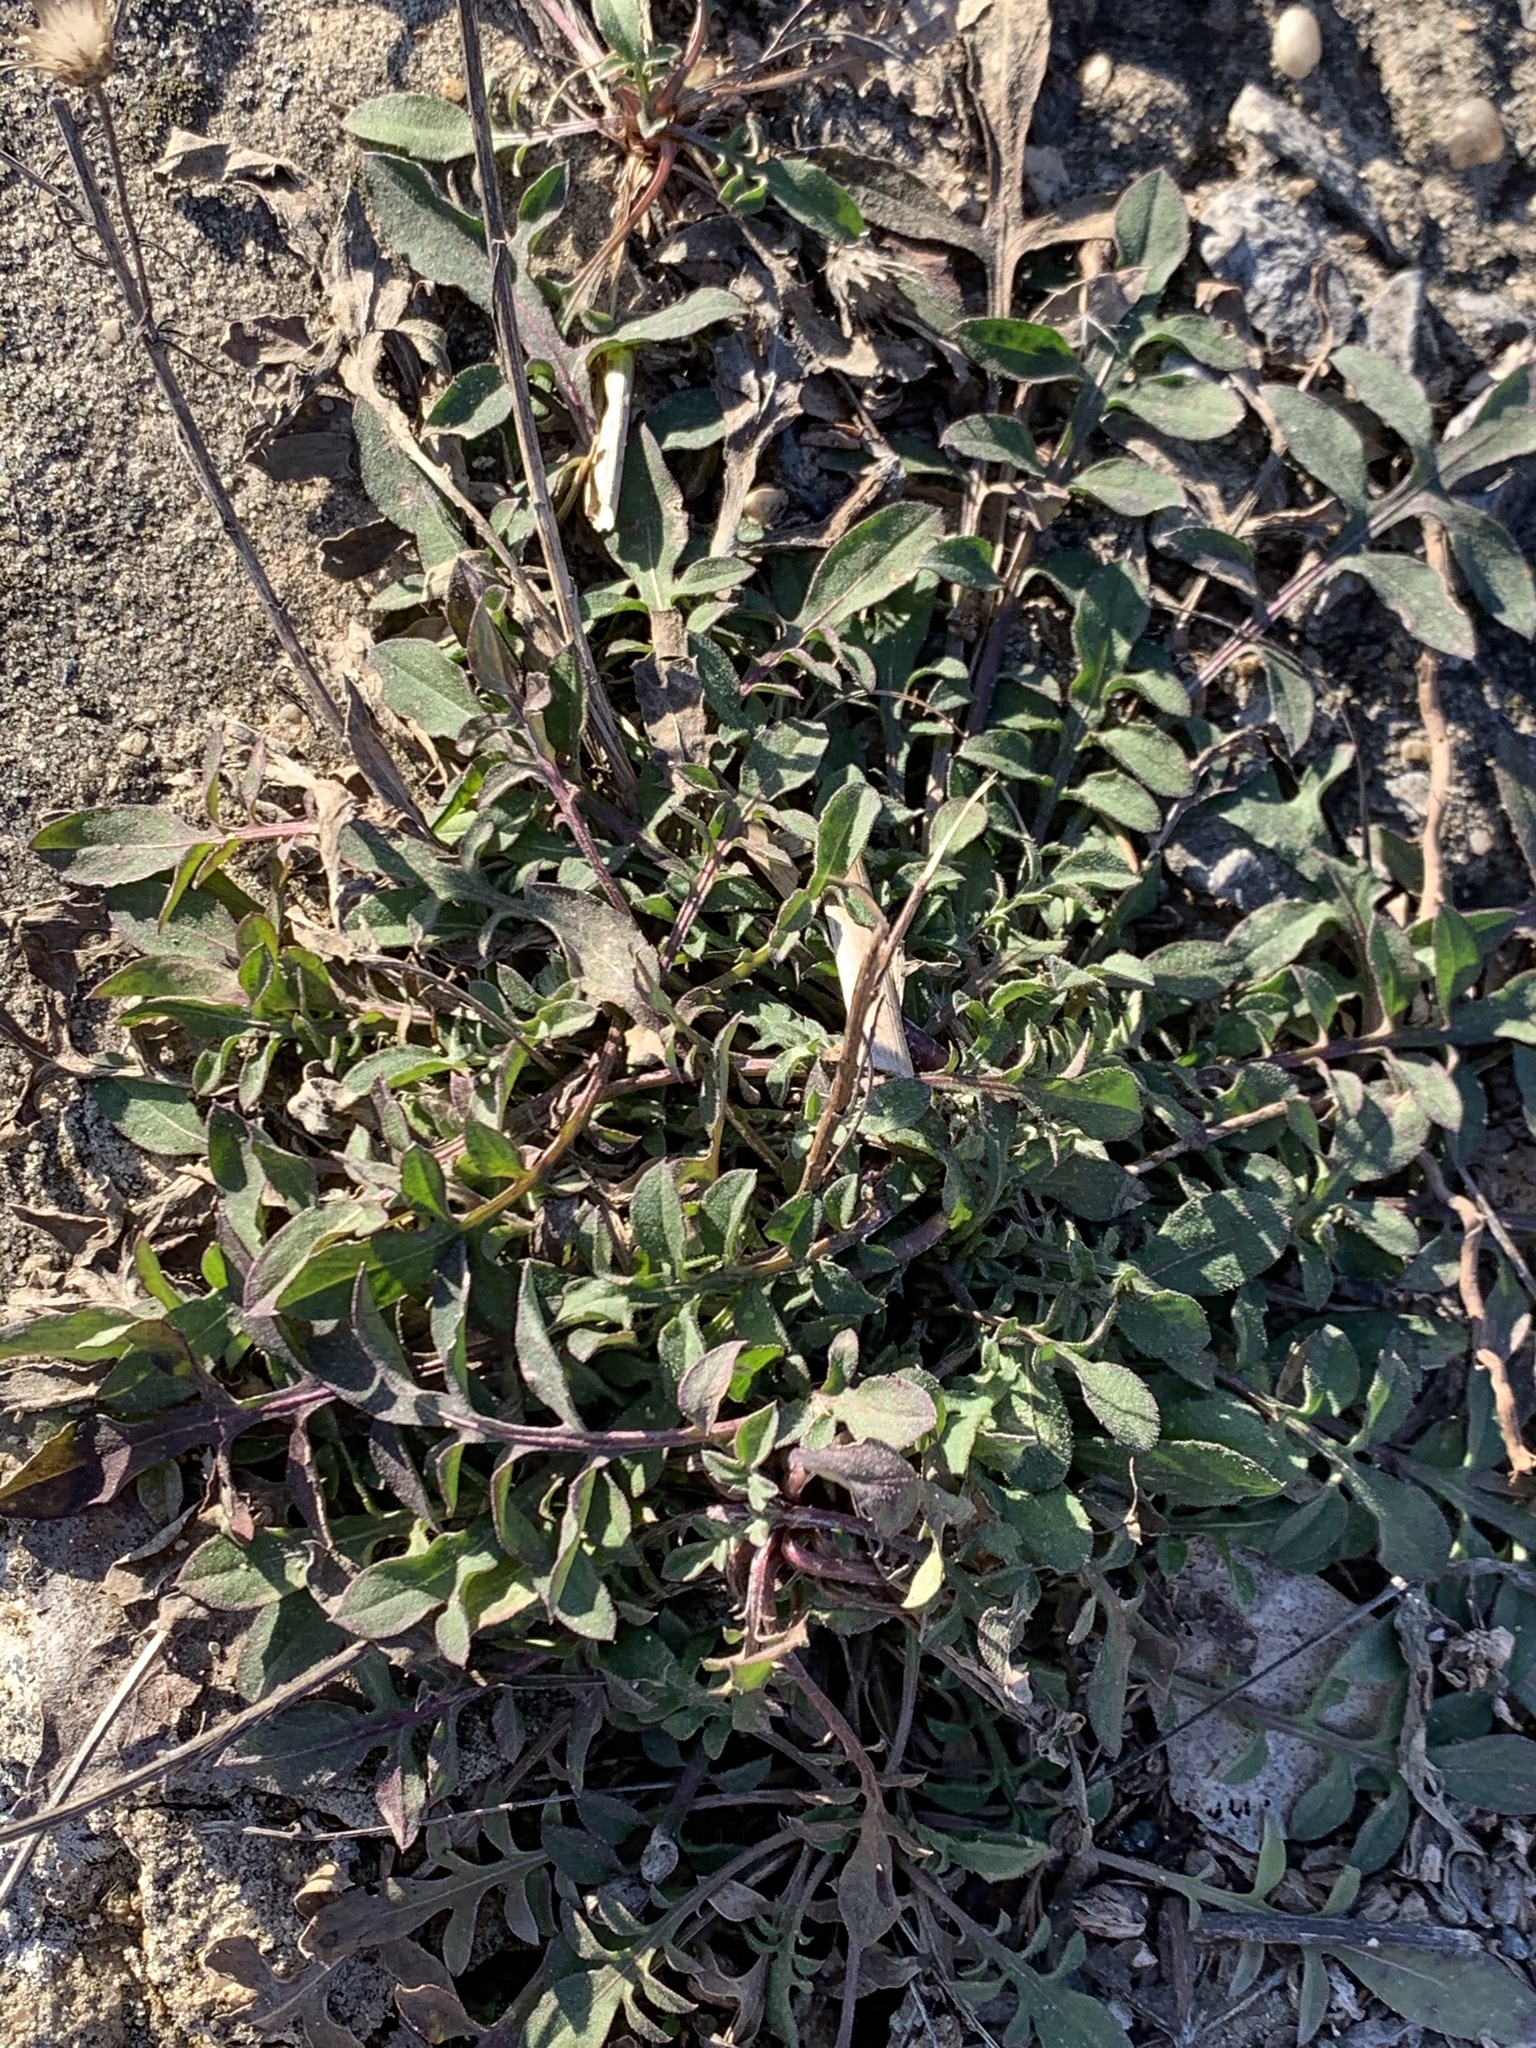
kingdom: Plantae
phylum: Tracheophyta
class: Magnoliopsida
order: Asterales
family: Asteraceae
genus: Centaurea
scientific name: Centaurea stoebe
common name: Spotted knapweed
